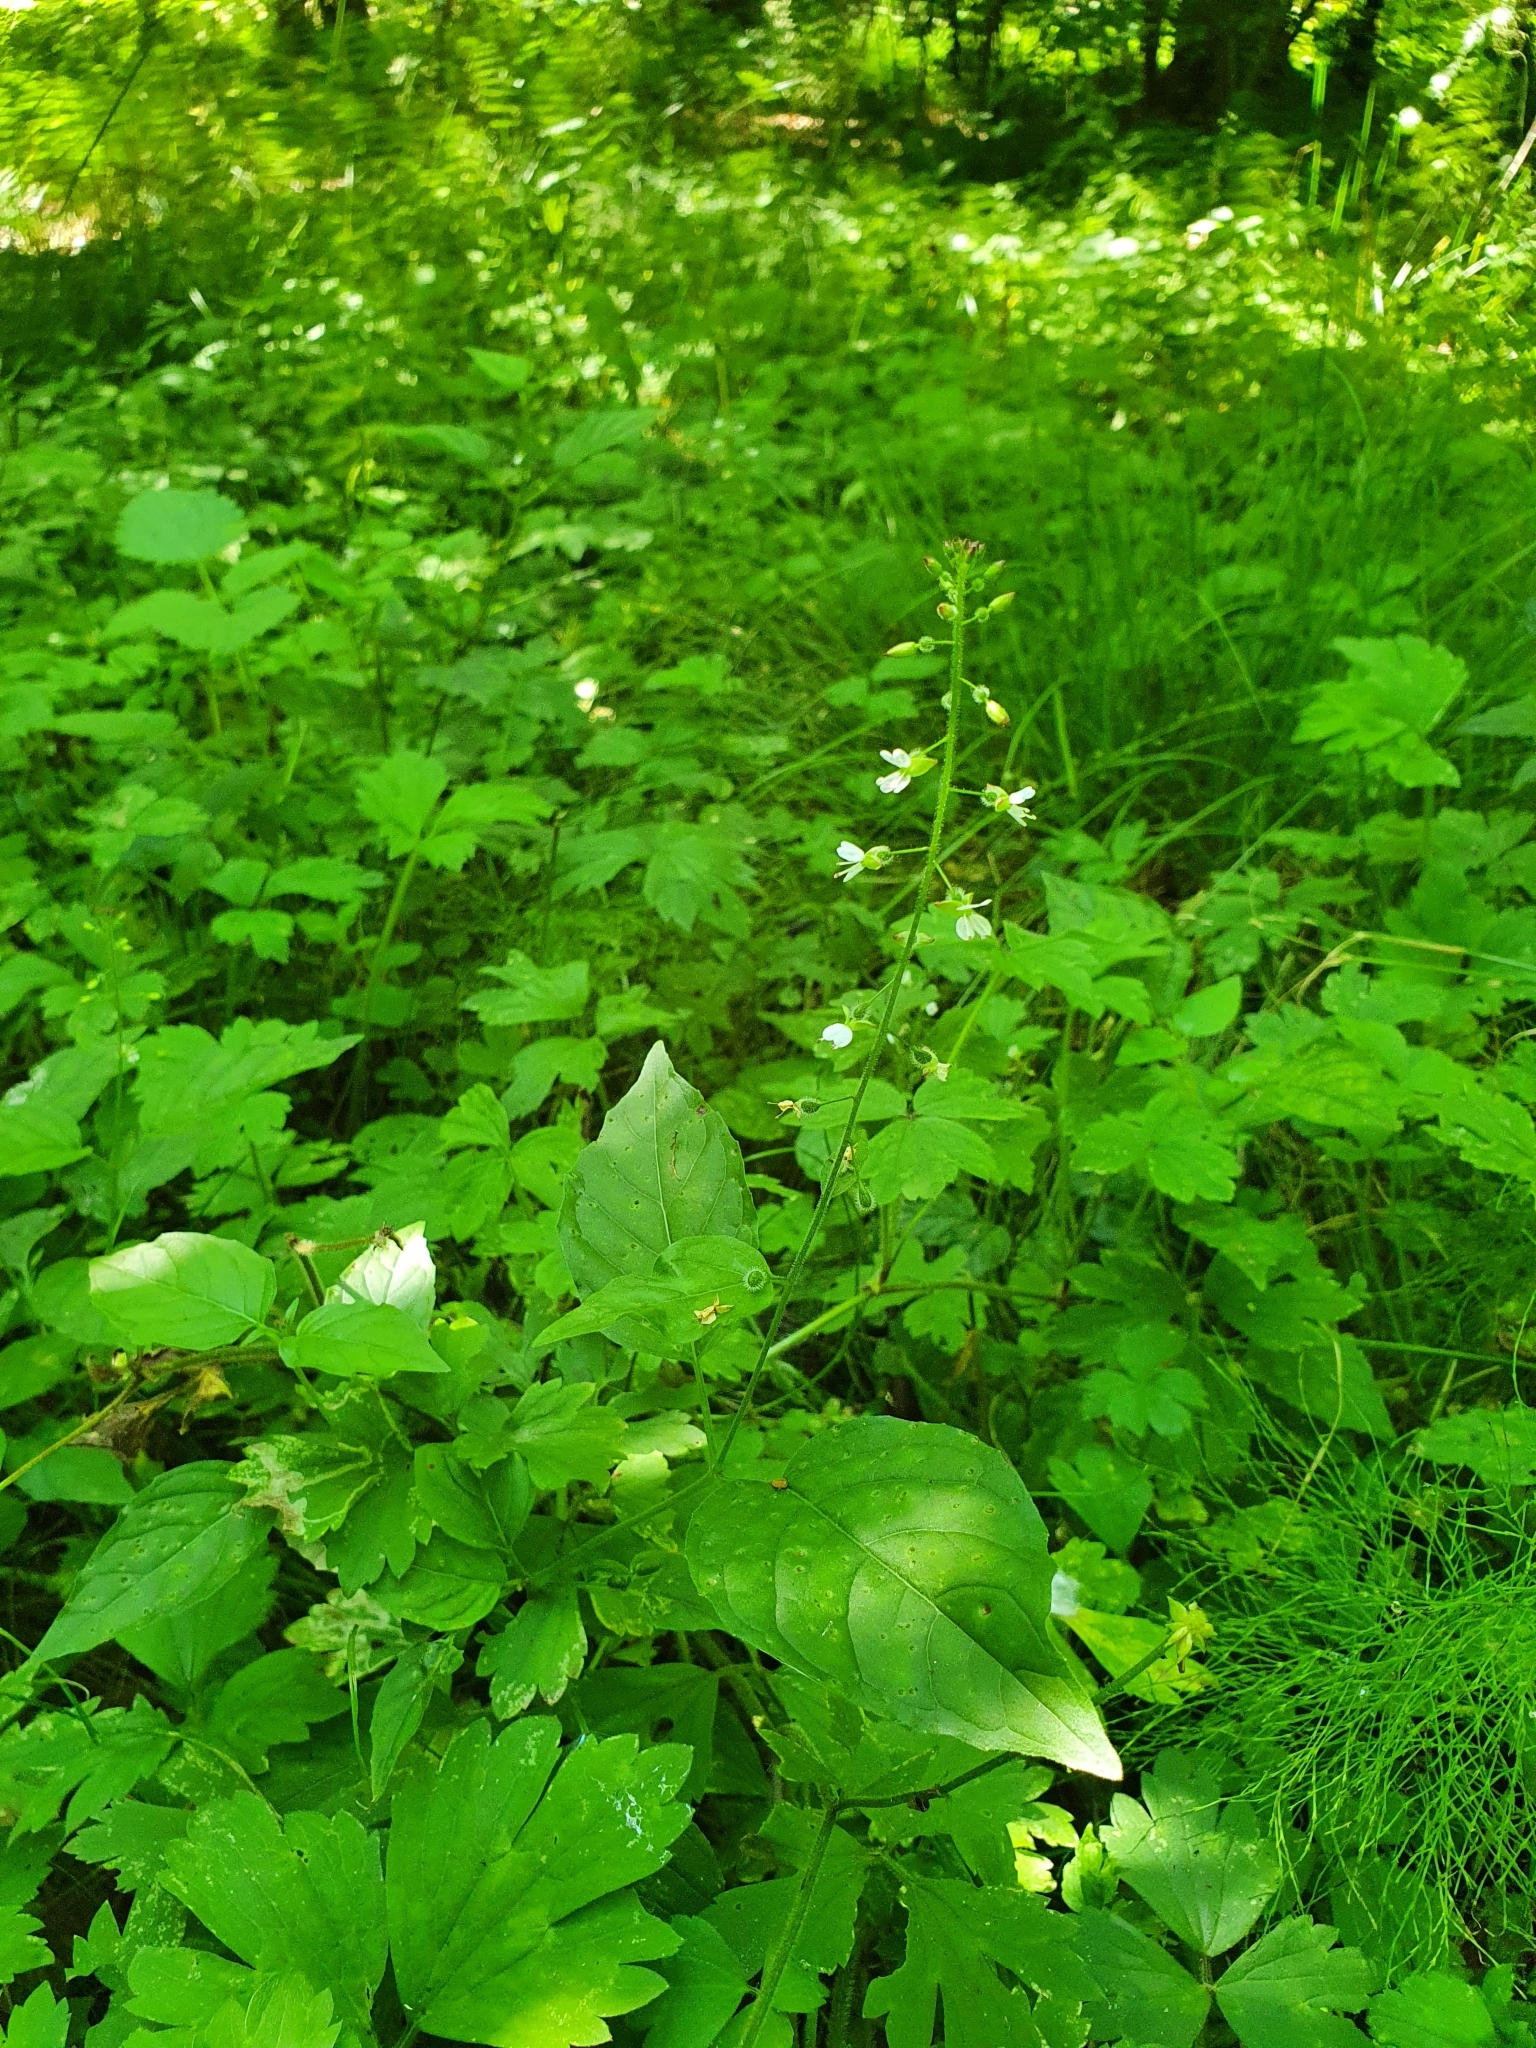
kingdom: Plantae
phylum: Tracheophyta
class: Magnoliopsida
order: Myrtales
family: Onagraceae
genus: Circaea
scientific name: Circaea lutetiana
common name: Enchanter's-nightshade
